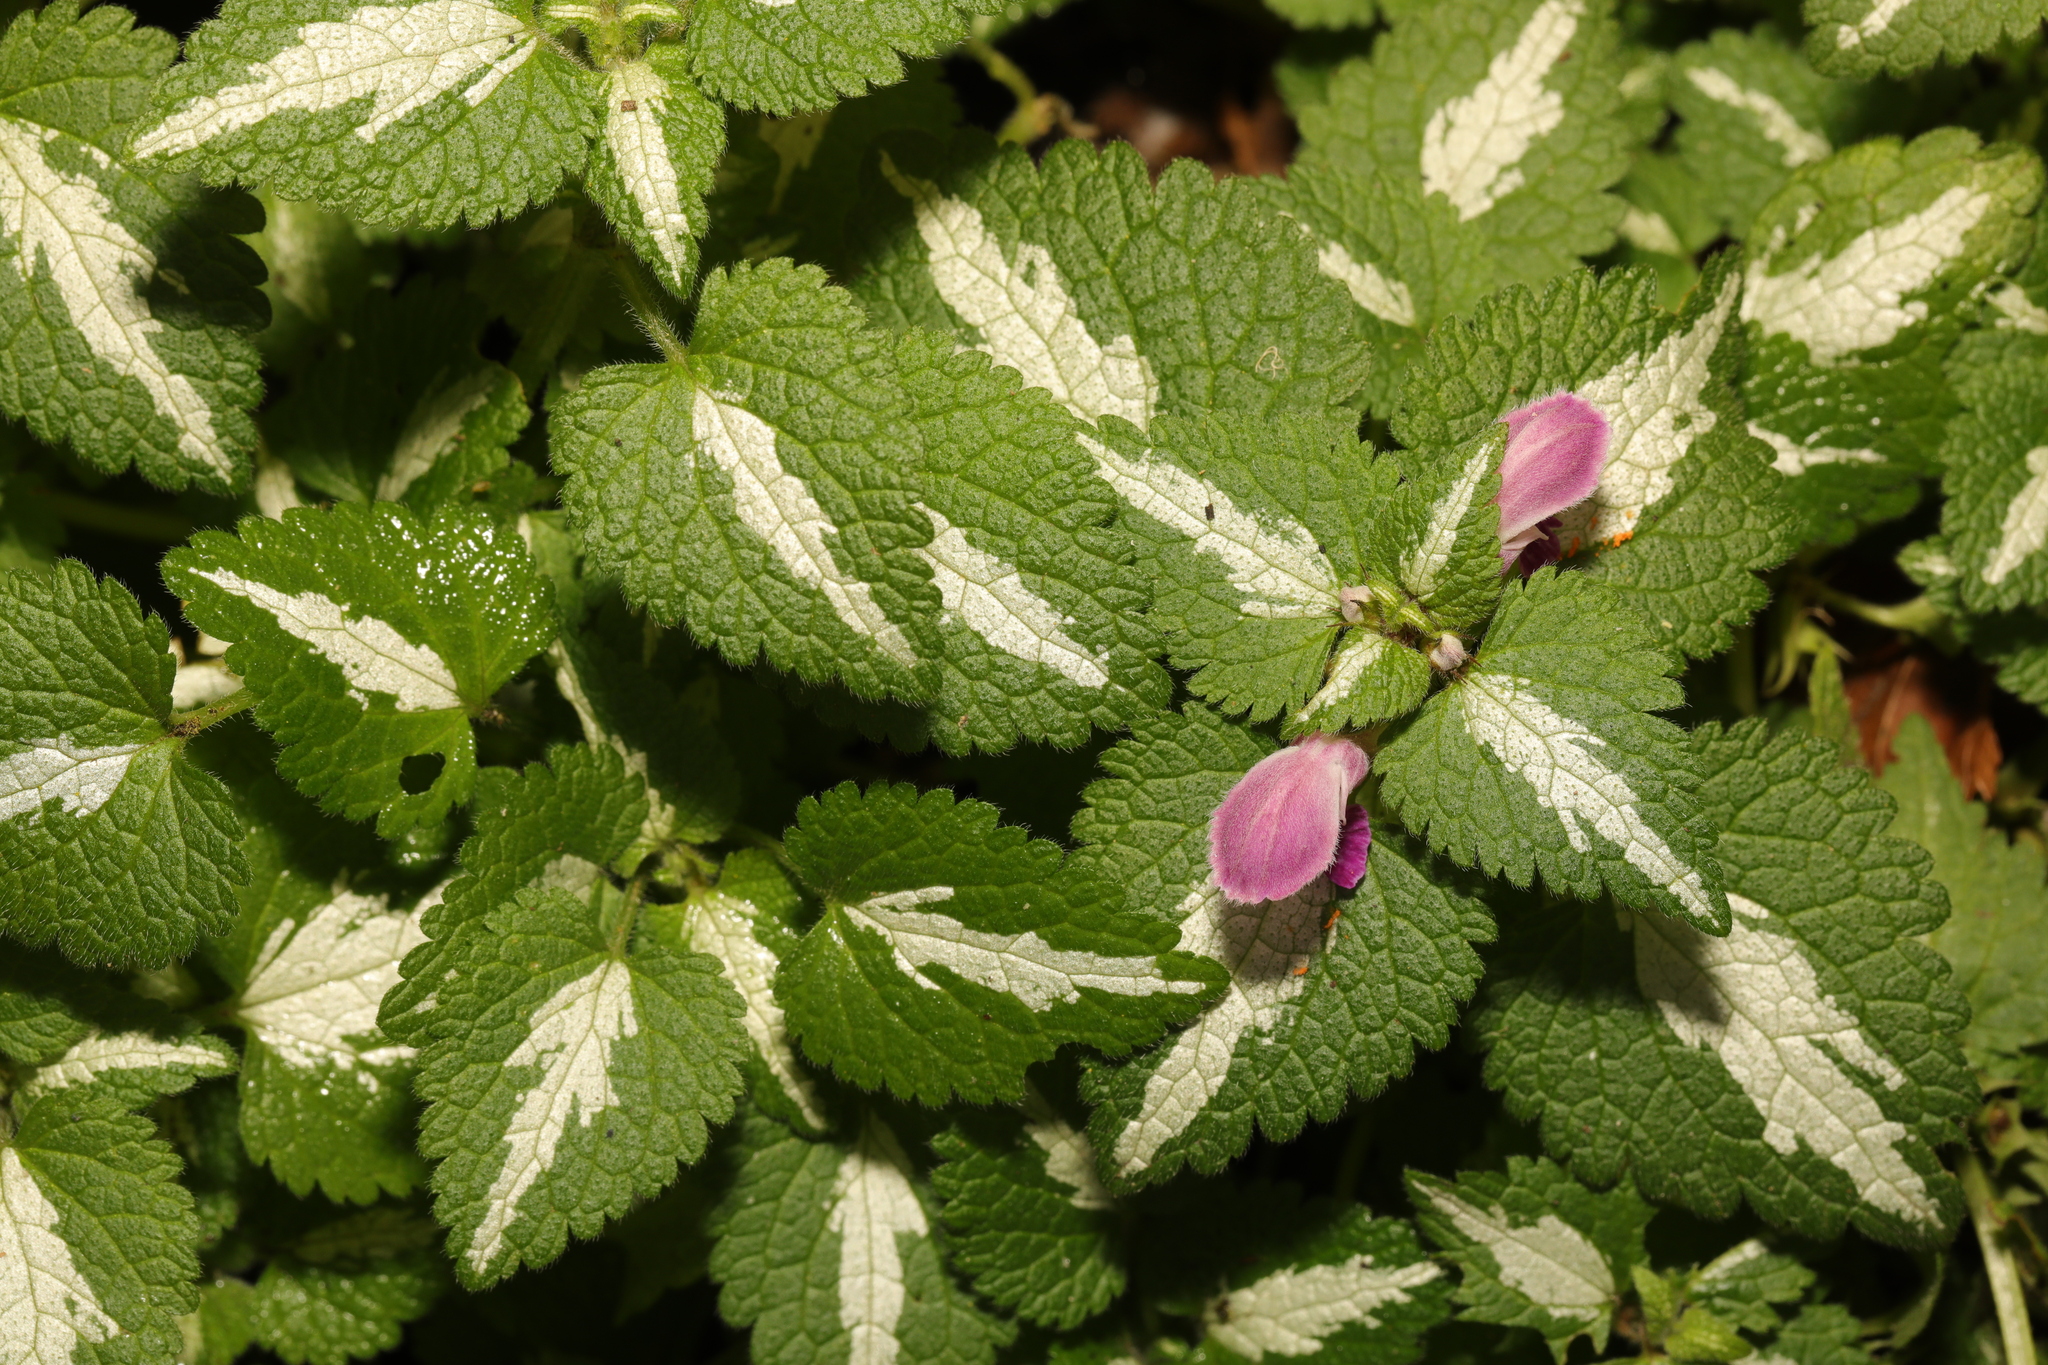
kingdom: Plantae
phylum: Tracheophyta
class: Magnoliopsida
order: Lamiales
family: Lamiaceae
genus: Lamium
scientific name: Lamium maculatum
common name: Spotted dead-nettle
